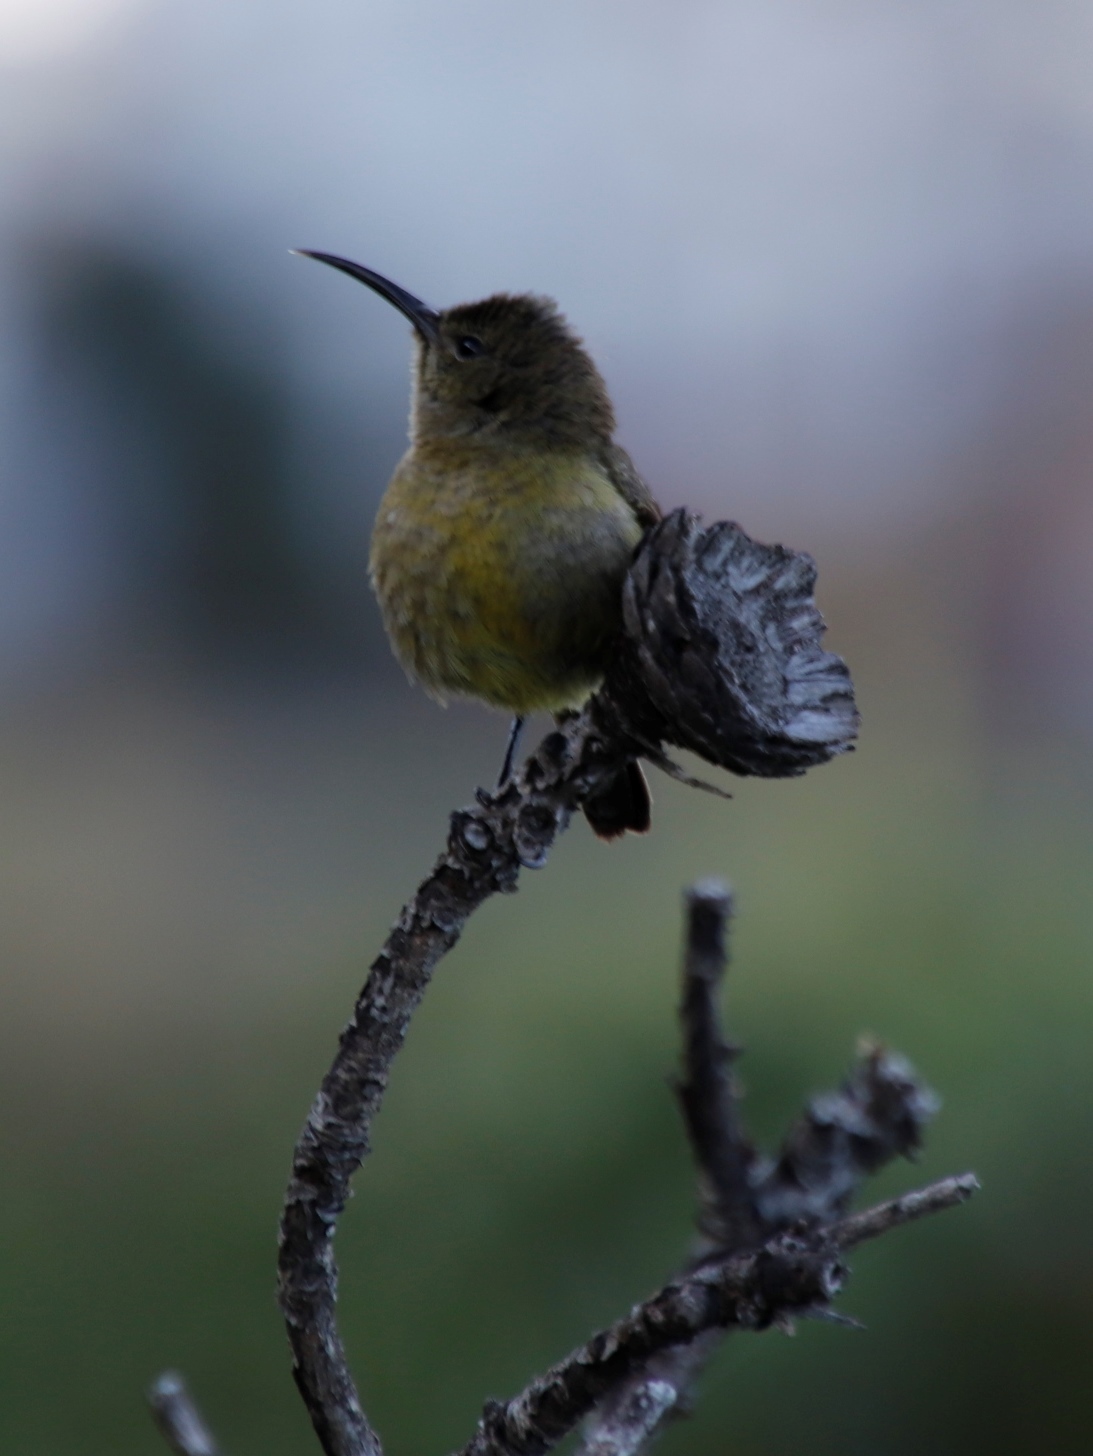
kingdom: Animalia
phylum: Chordata
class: Aves
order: Passeriformes
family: Nectariniidae
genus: Anthobaphes
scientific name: Anthobaphes violacea
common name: Orange-breasted sunbird
